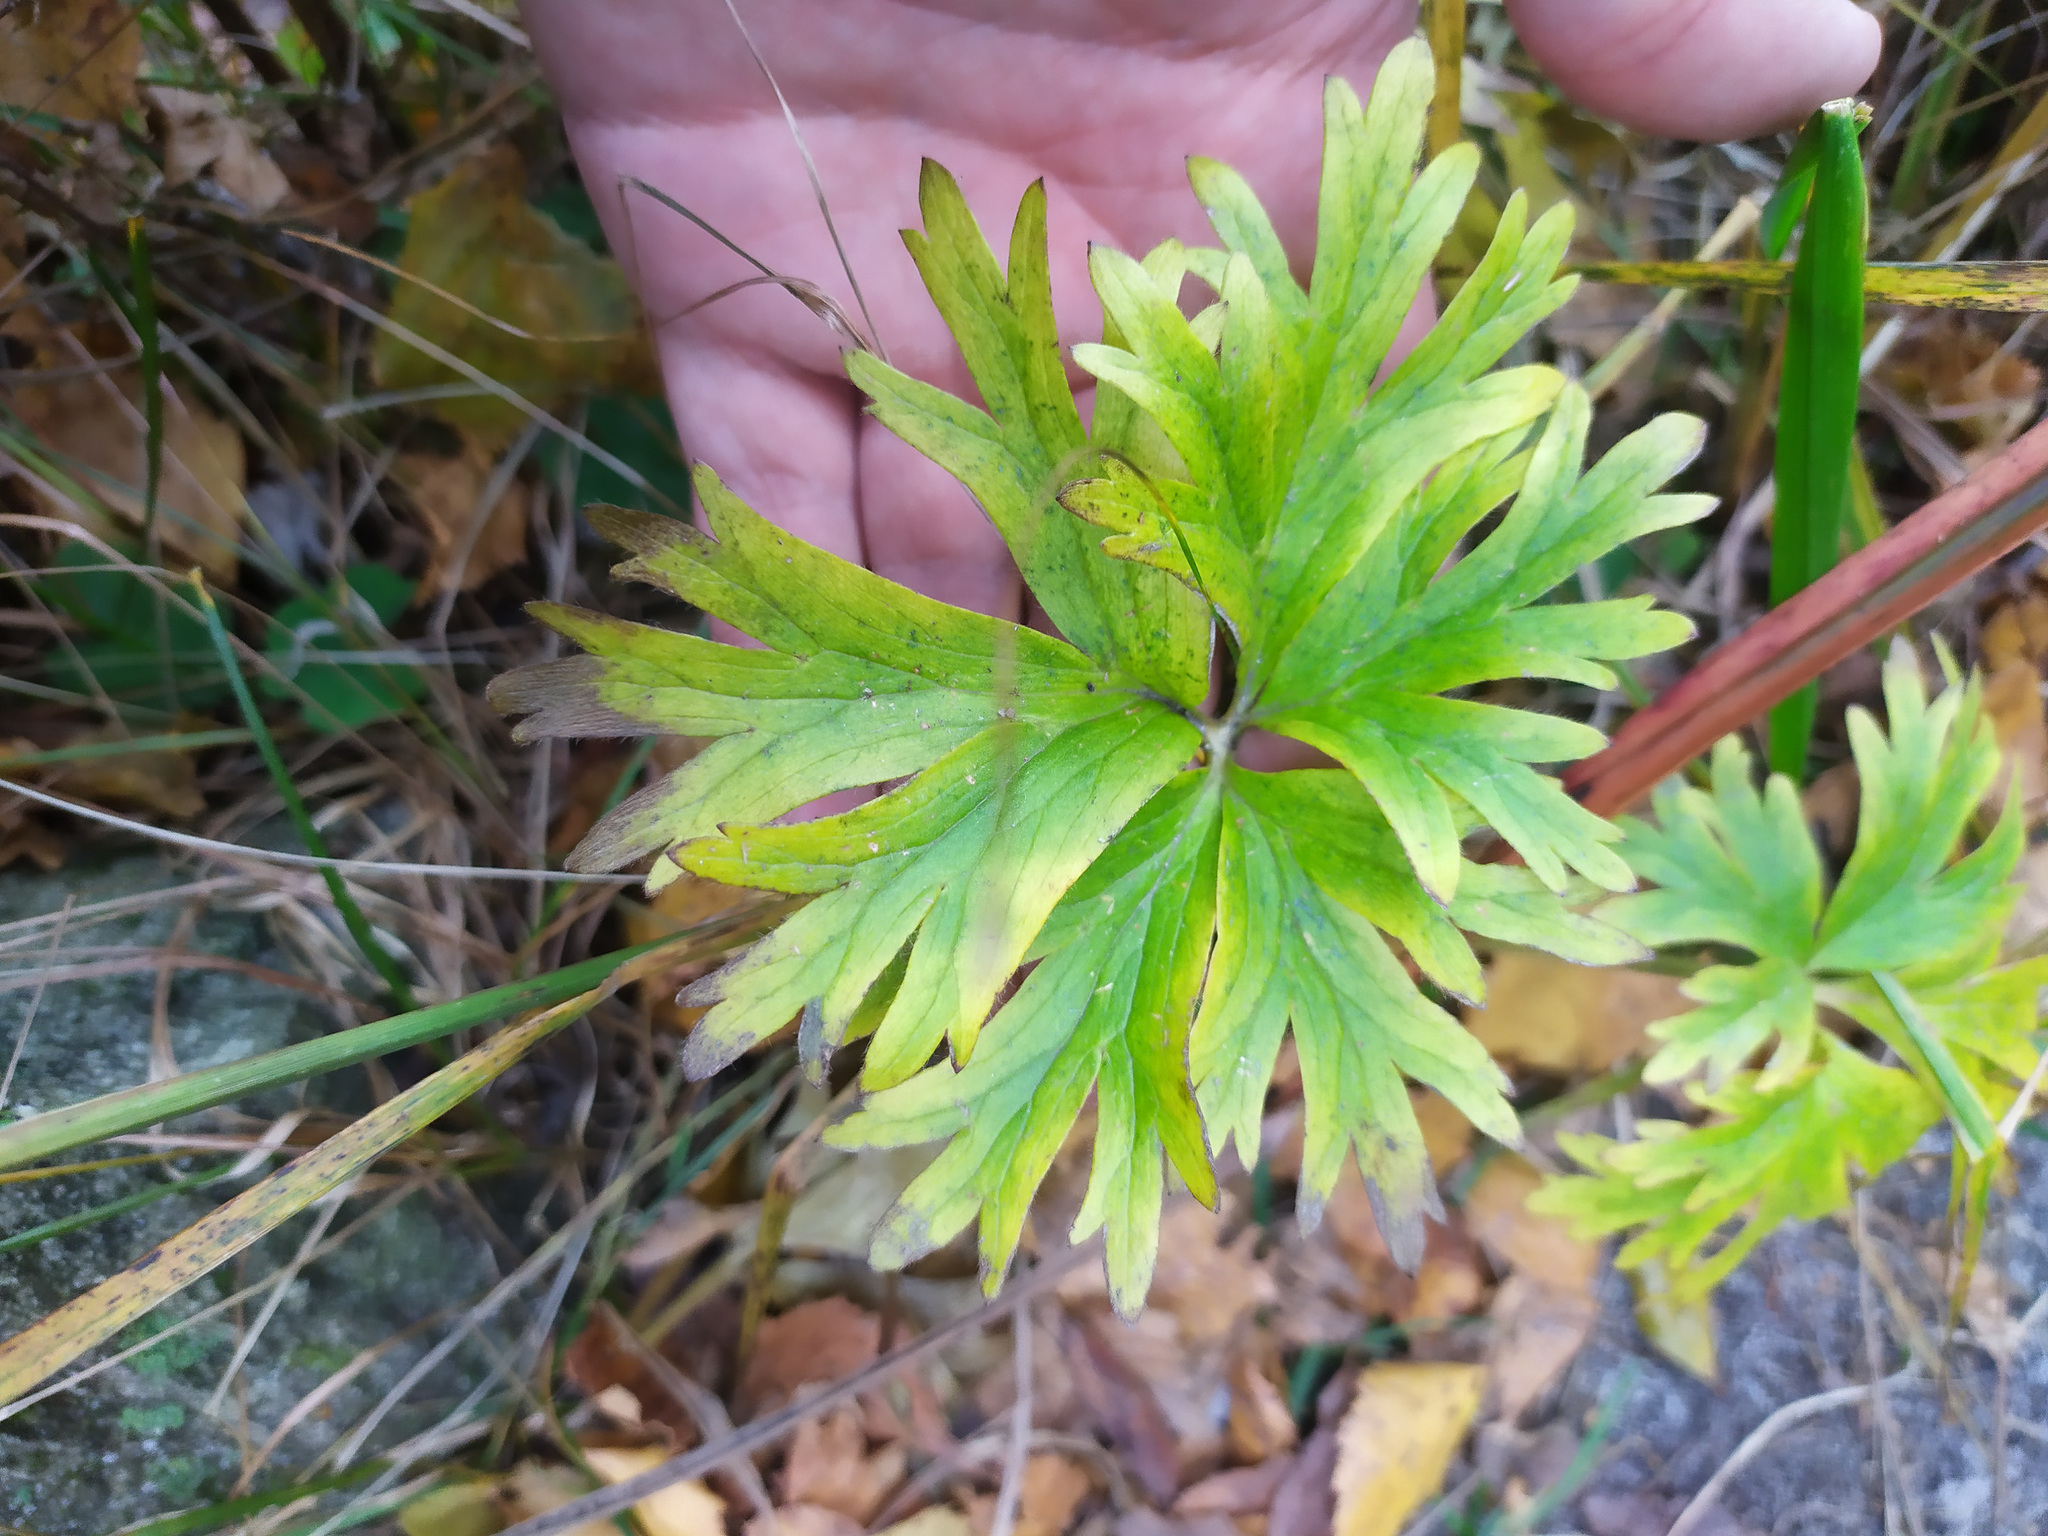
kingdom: Plantae
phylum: Tracheophyta
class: Magnoliopsida
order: Ranunculales
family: Ranunculaceae
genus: Anemonastrum
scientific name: Anemonastrum biarmiense
